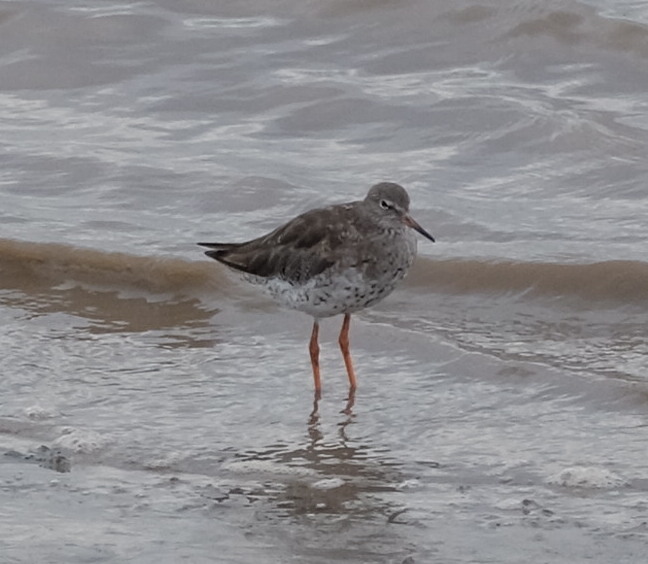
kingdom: Animalia
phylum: Chordata
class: Aves
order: Charadriiformes
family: Scolopacidae
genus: Tringa
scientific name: Tringa totanus
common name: Common redshank
